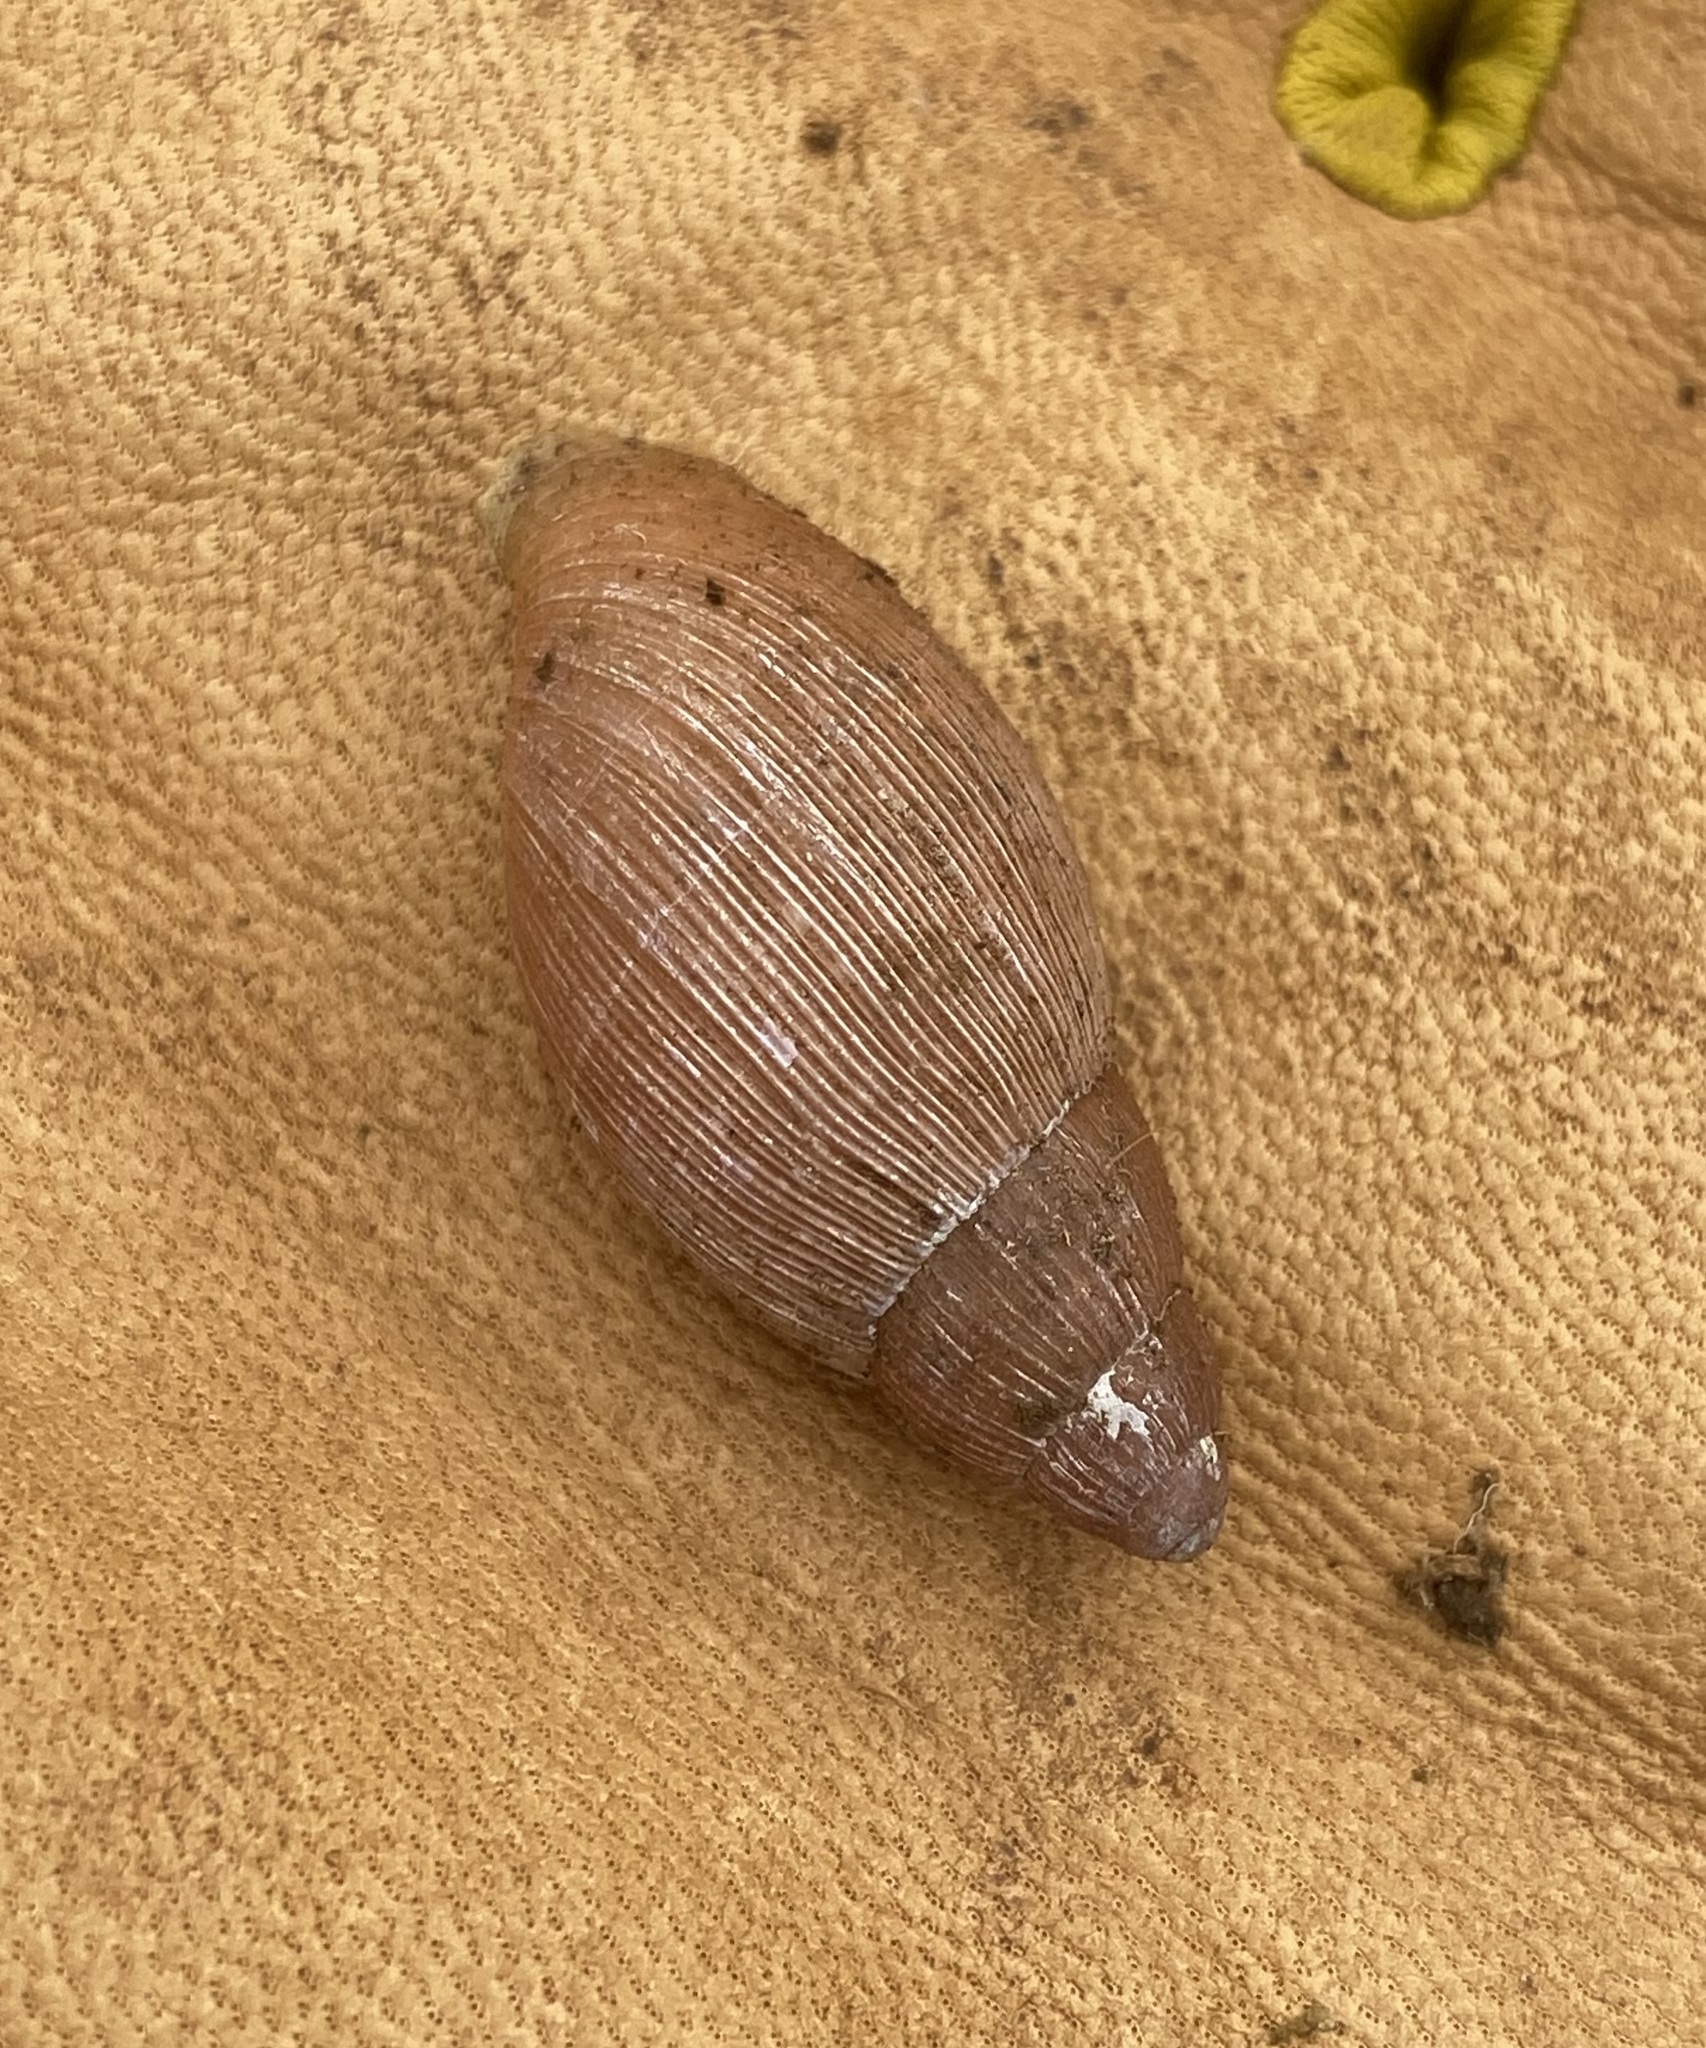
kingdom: Animalia
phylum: Mollusca
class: Gastropoda
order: Stylommatophora
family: Spiraxidae
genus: Euglandina
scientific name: Euglandina rosea
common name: Rosy wolfsnail
